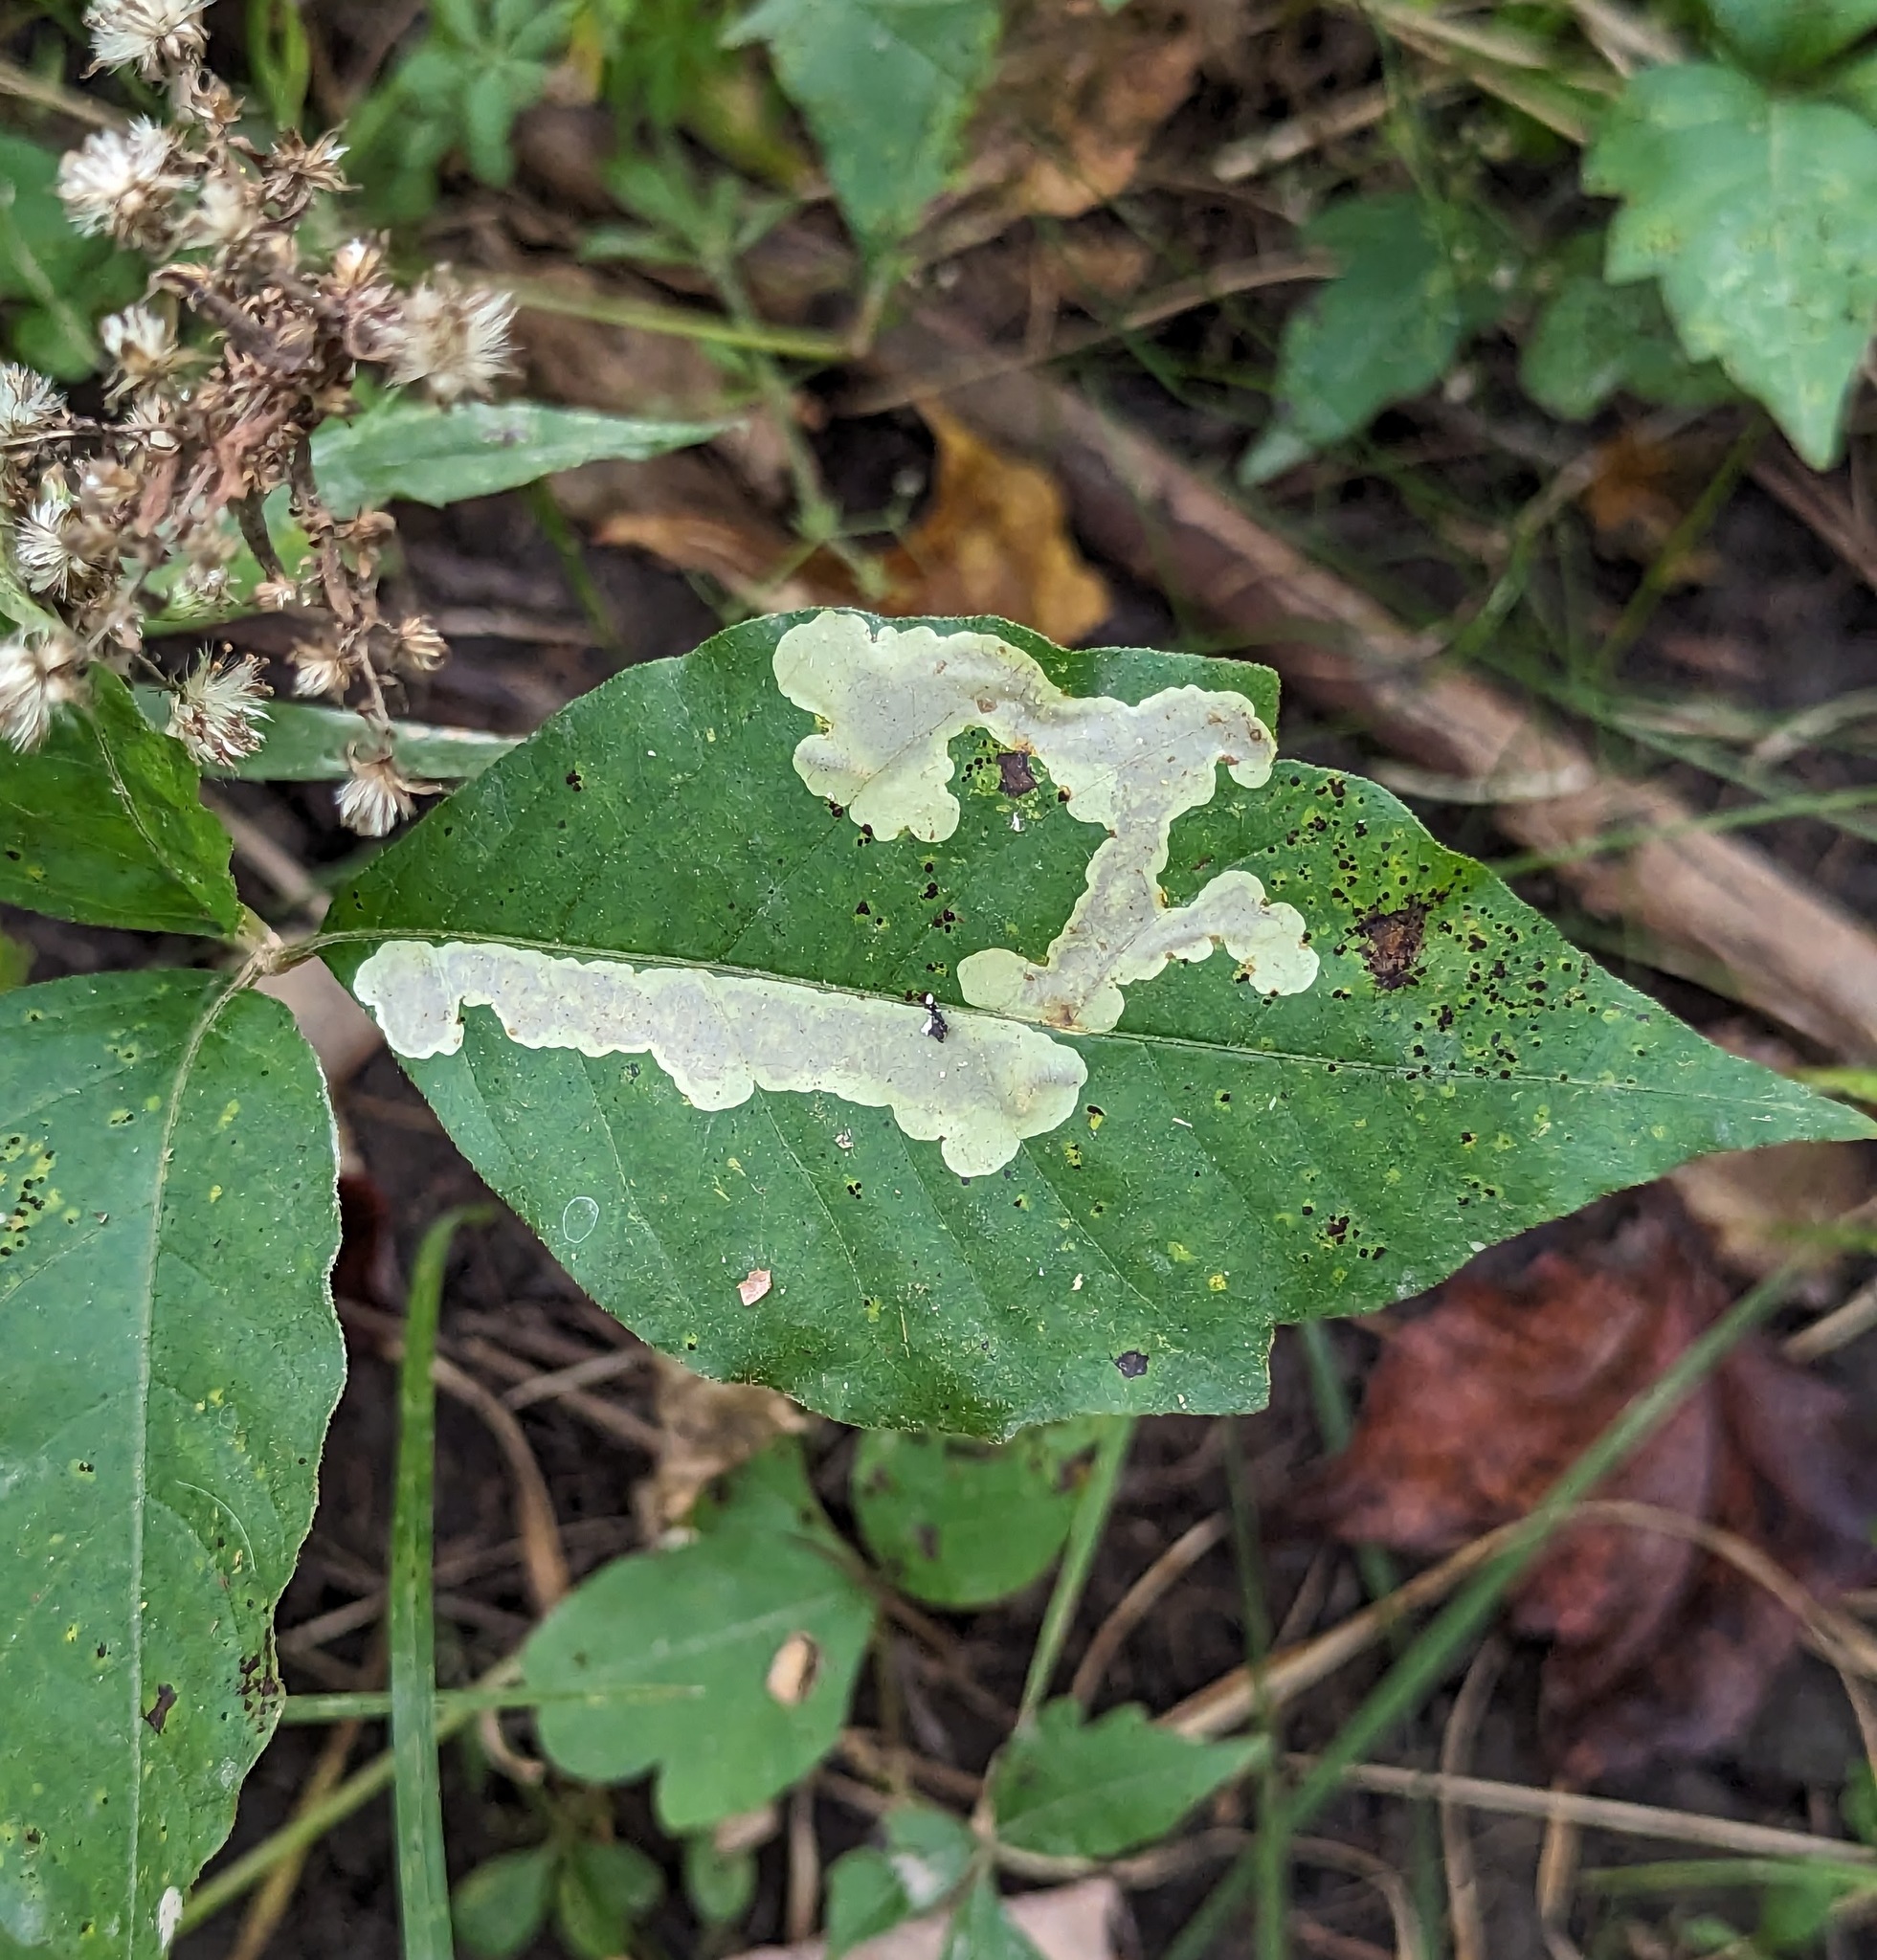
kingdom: Animalia
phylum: Arthropoda
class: Insecta
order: Lepidoptera
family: Gracillariidae
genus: Cameraria
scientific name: Cameraria guttifinitella
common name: Poison ivy leaf-miner moth
